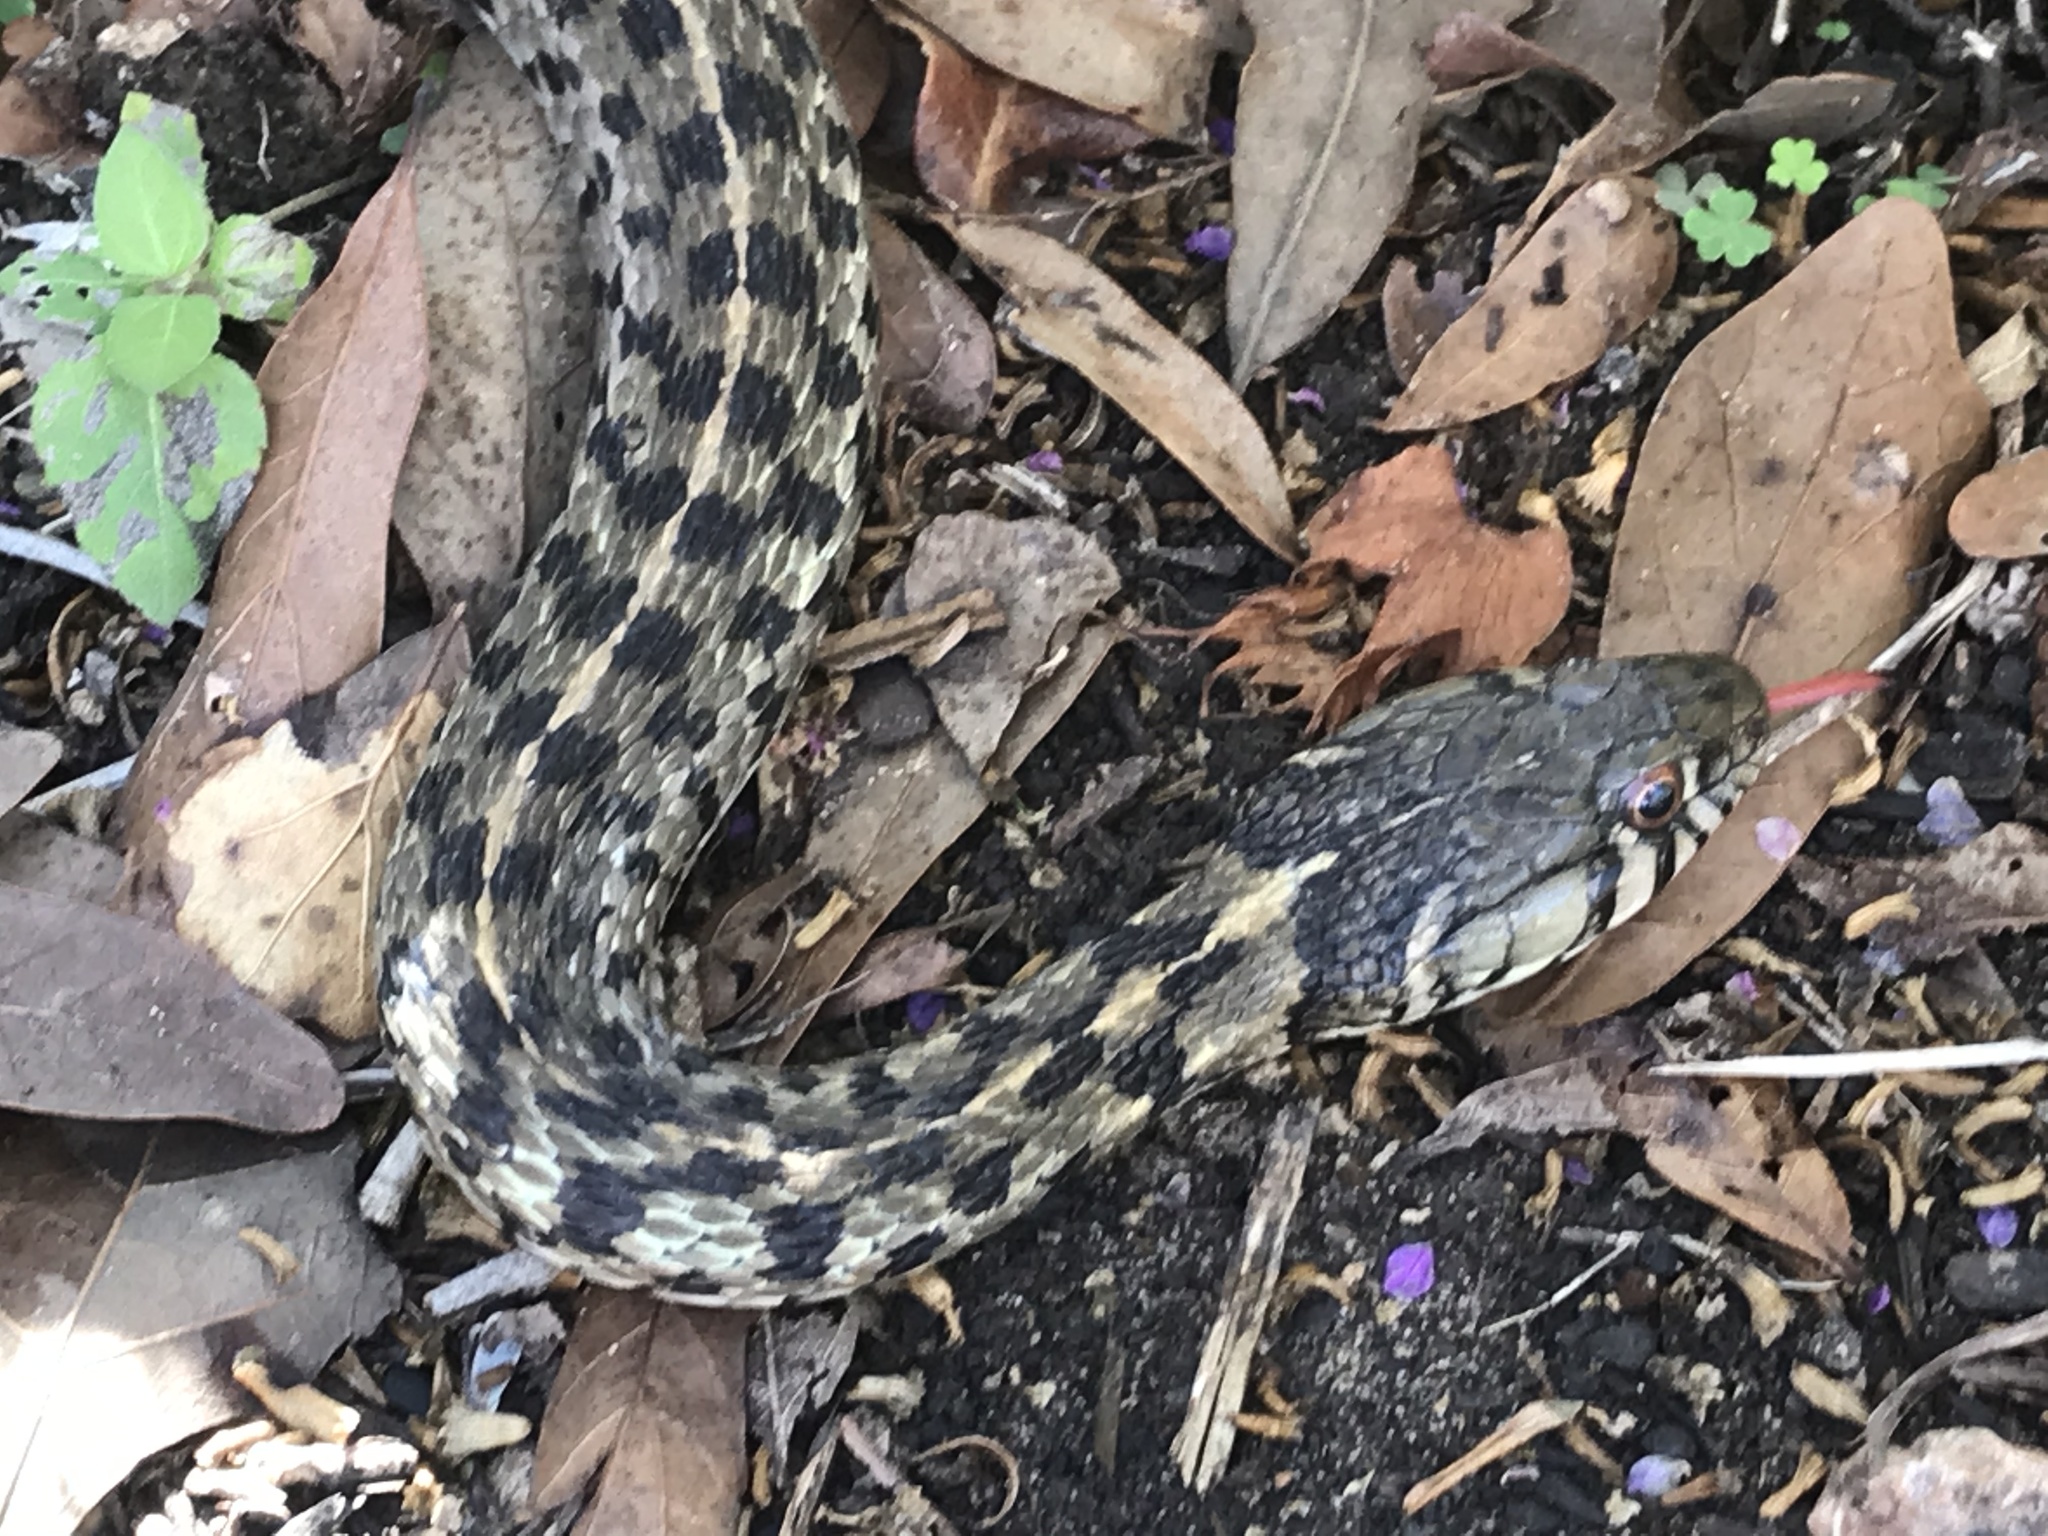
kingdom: Animalia
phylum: Chordata
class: Squamata
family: Colubridae
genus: Thamnophis
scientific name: Thamnophis marcianus
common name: Checkered garter snake
